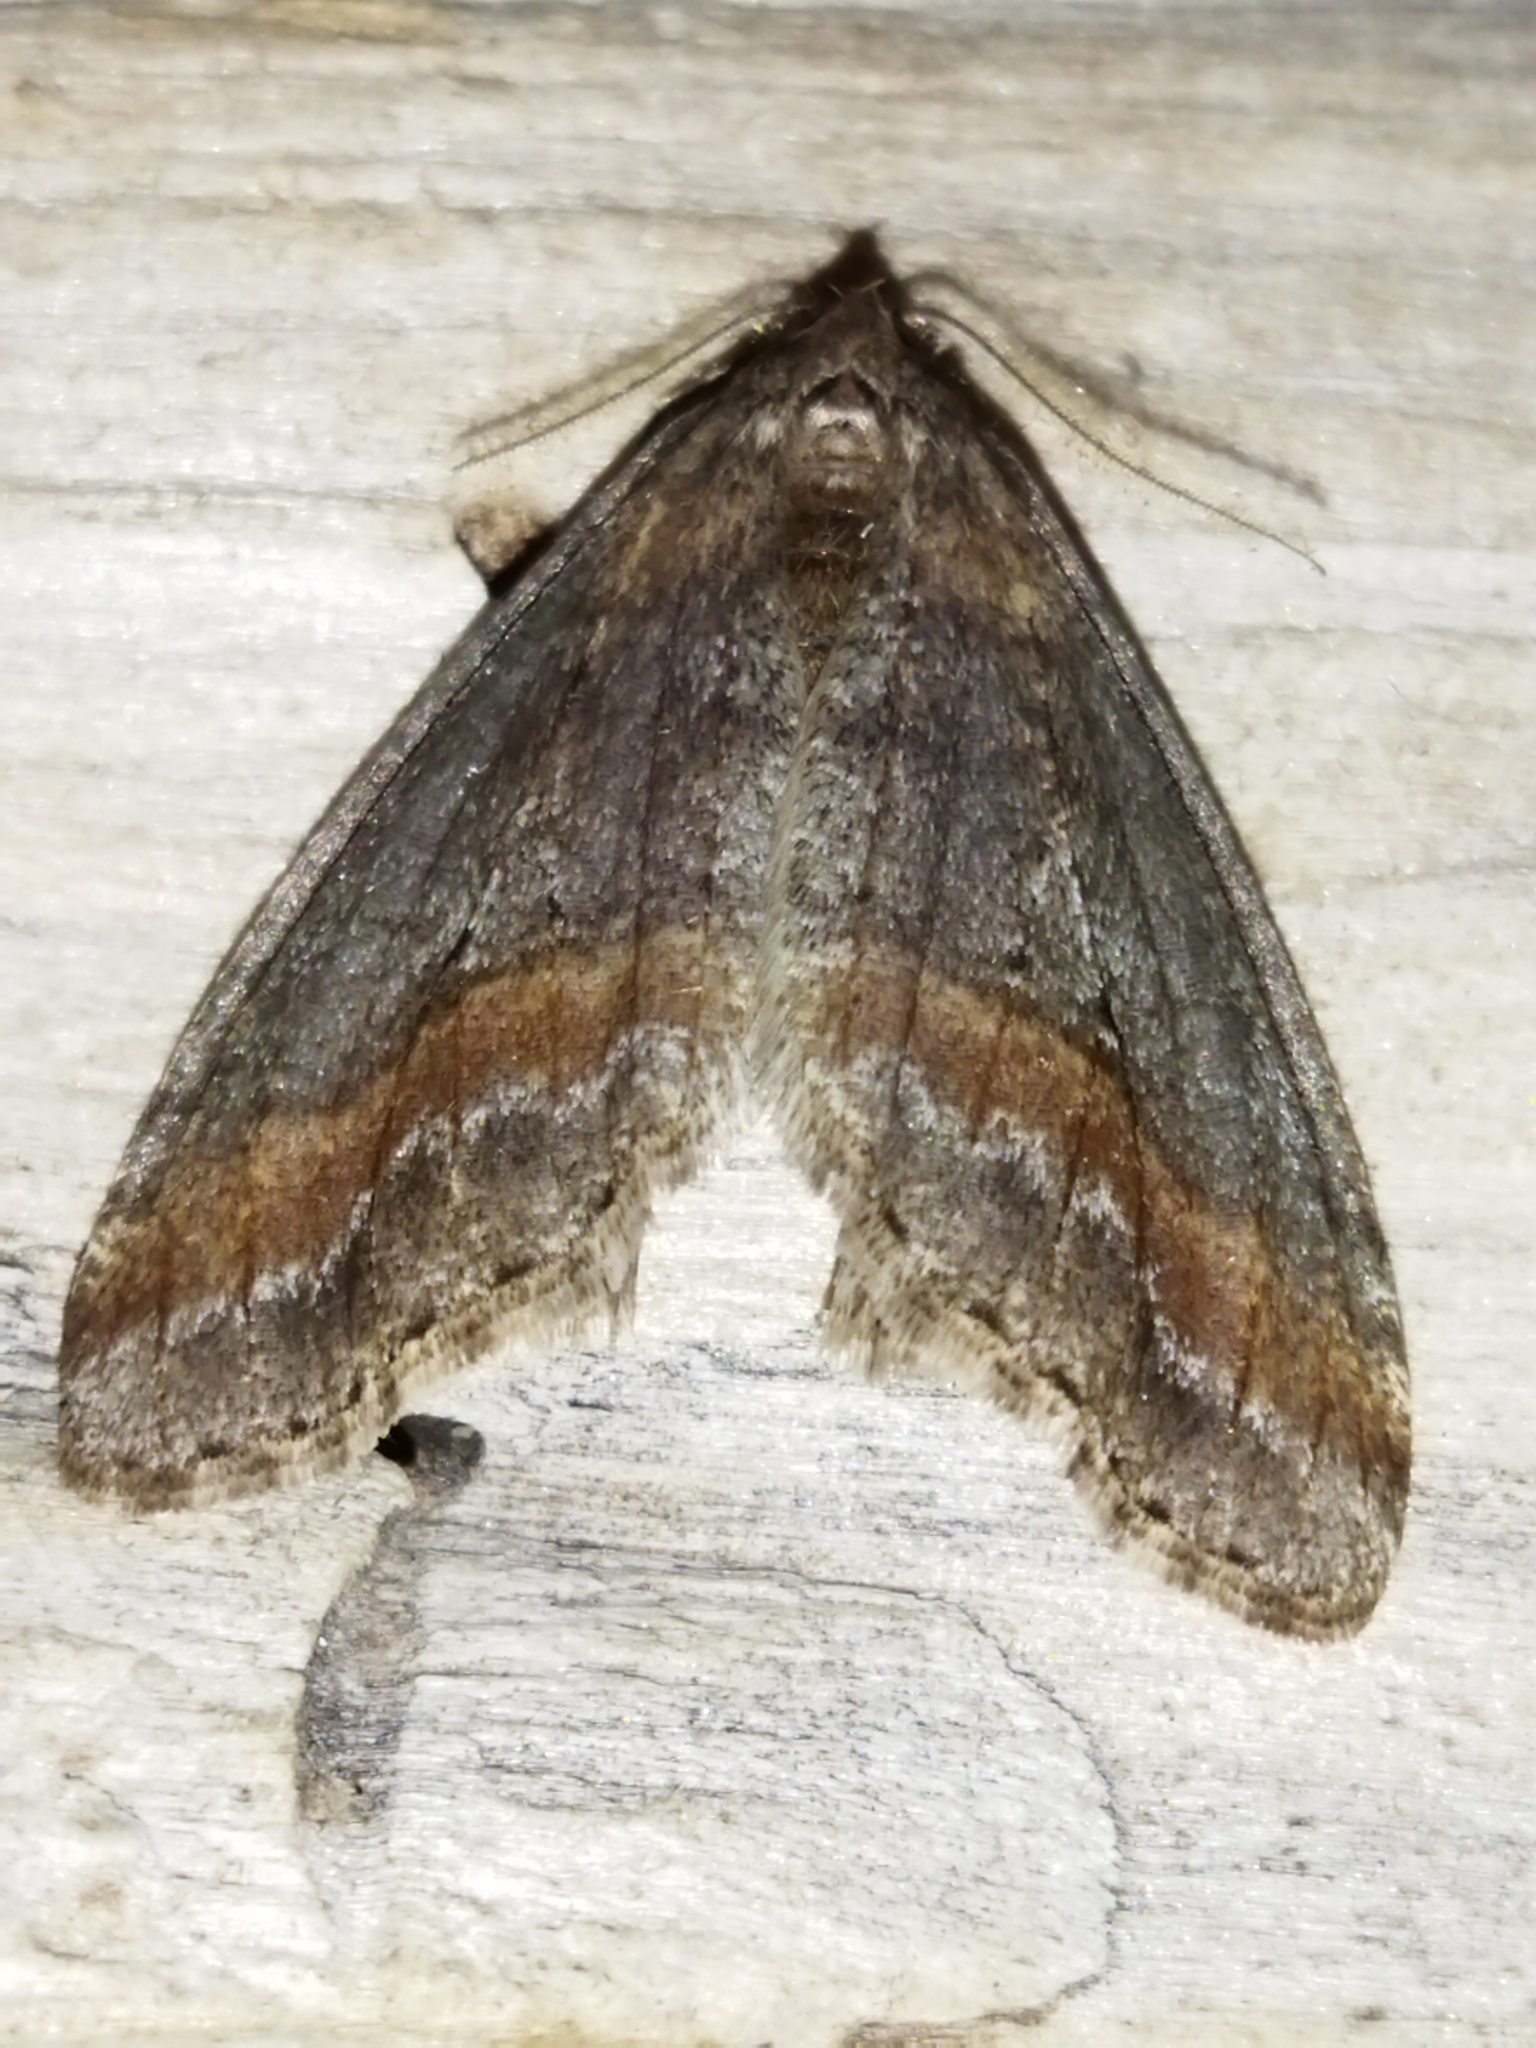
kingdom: Animalia
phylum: Arthropoda
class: Insecta
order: Lepidoptera
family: Geometridae
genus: Erannis
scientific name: Erannis declinans
